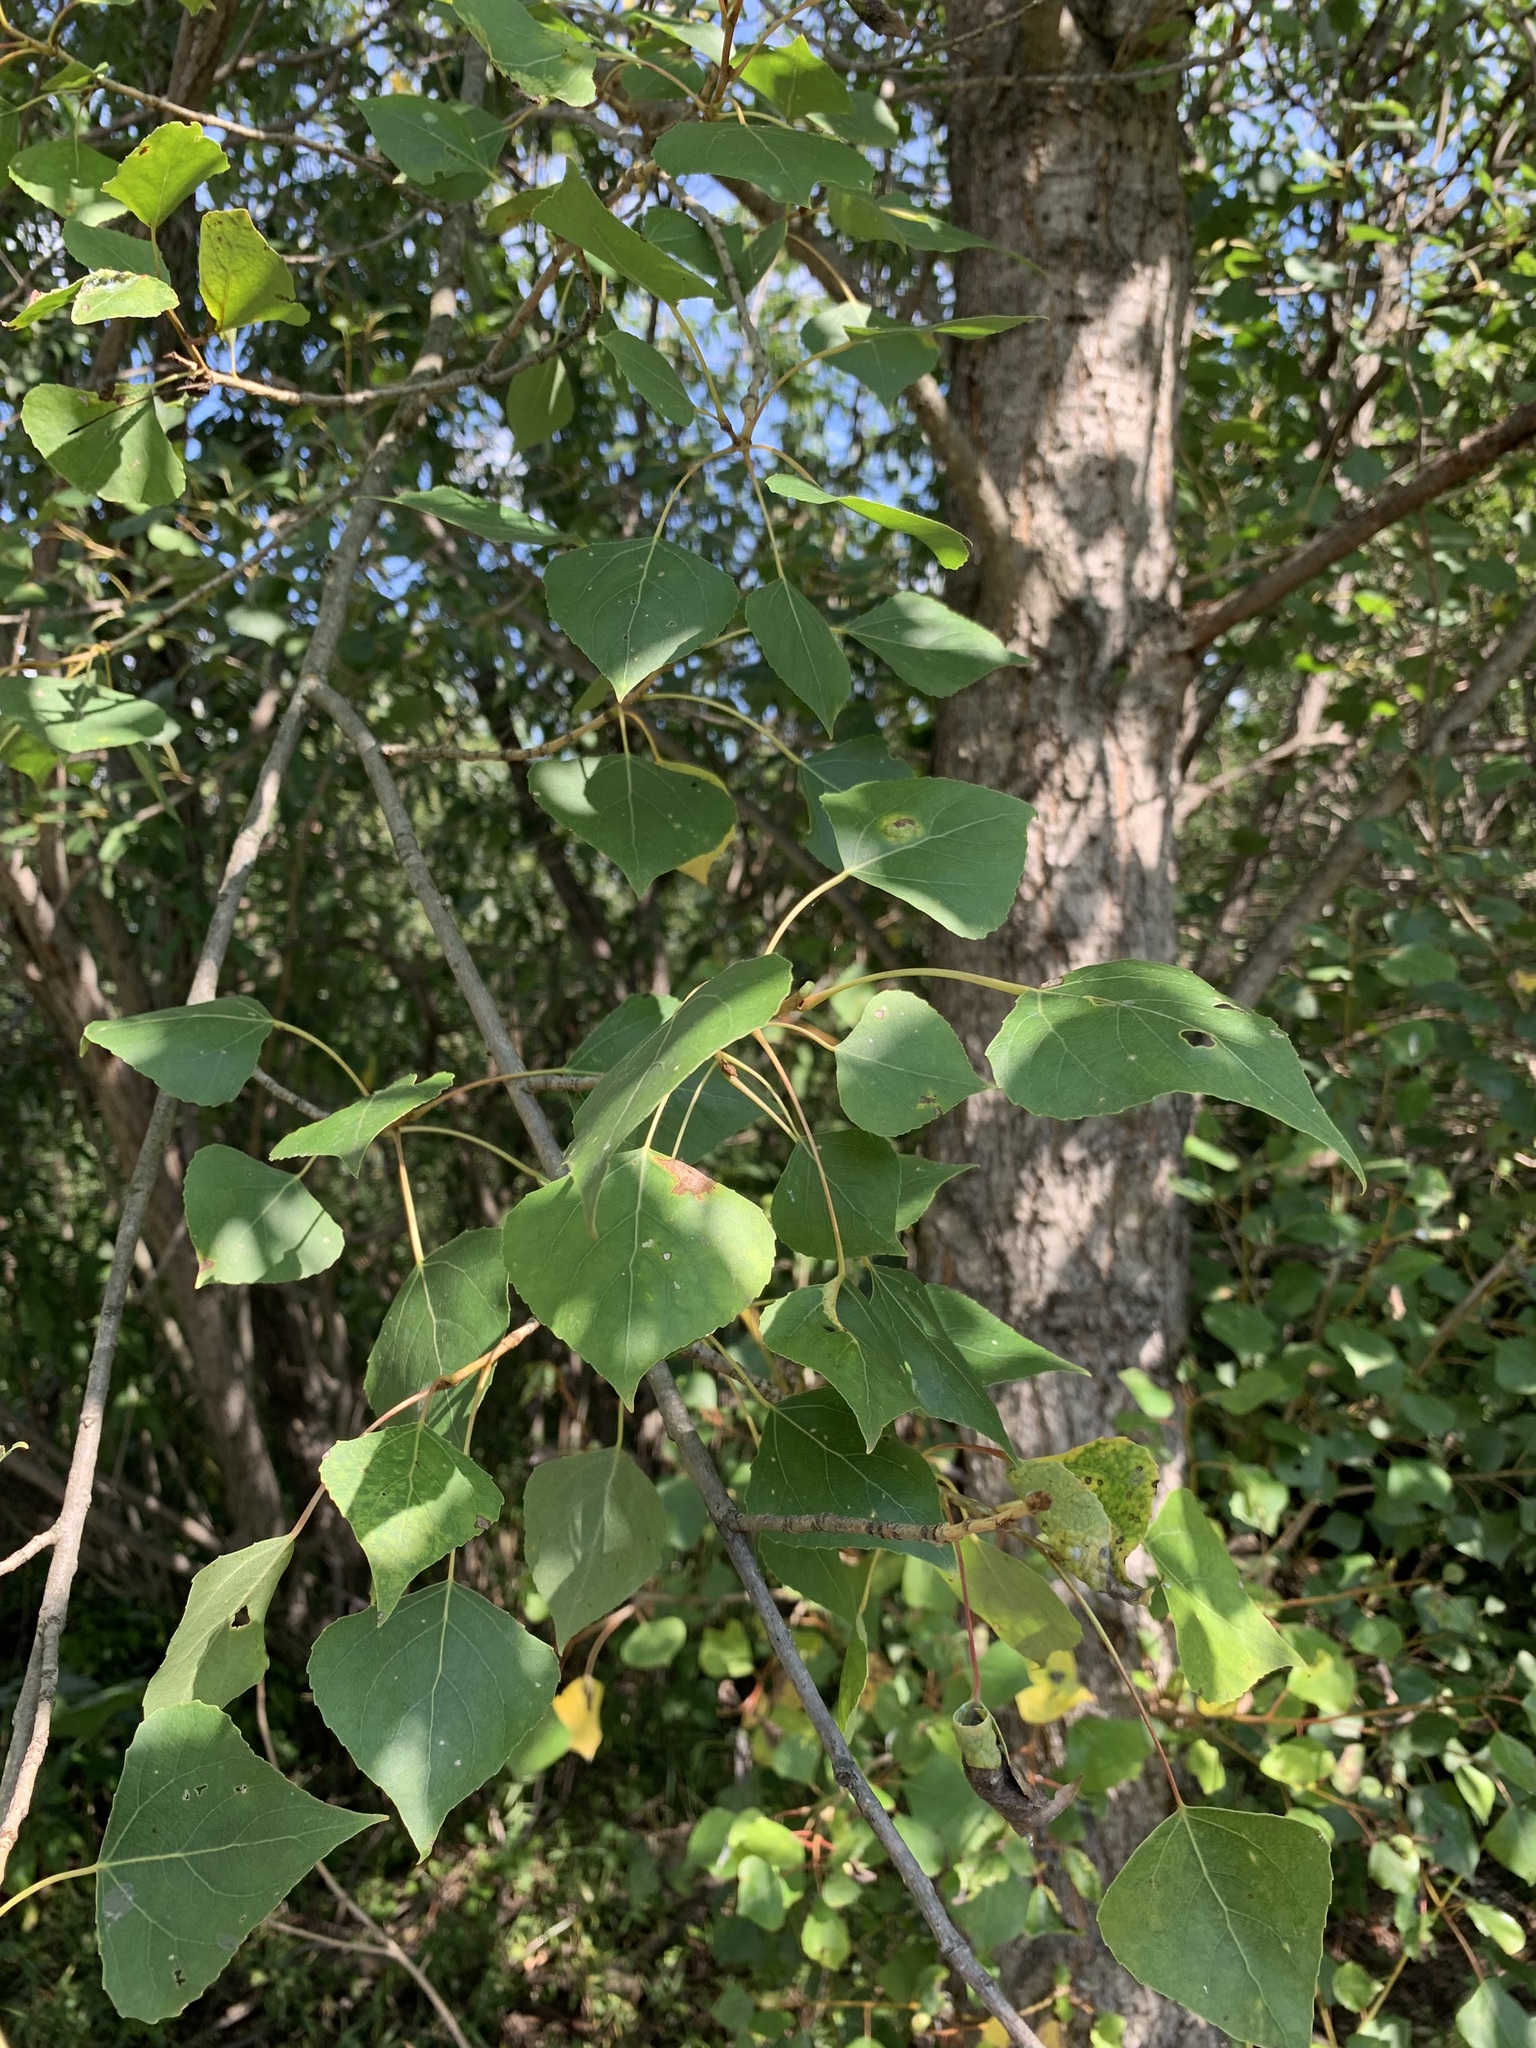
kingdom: Plantae
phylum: Tracheophyta
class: Magnoliopsida
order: Malpighiales
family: Salicaceae
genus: Populus
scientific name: Populus nigra
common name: Black poplar
